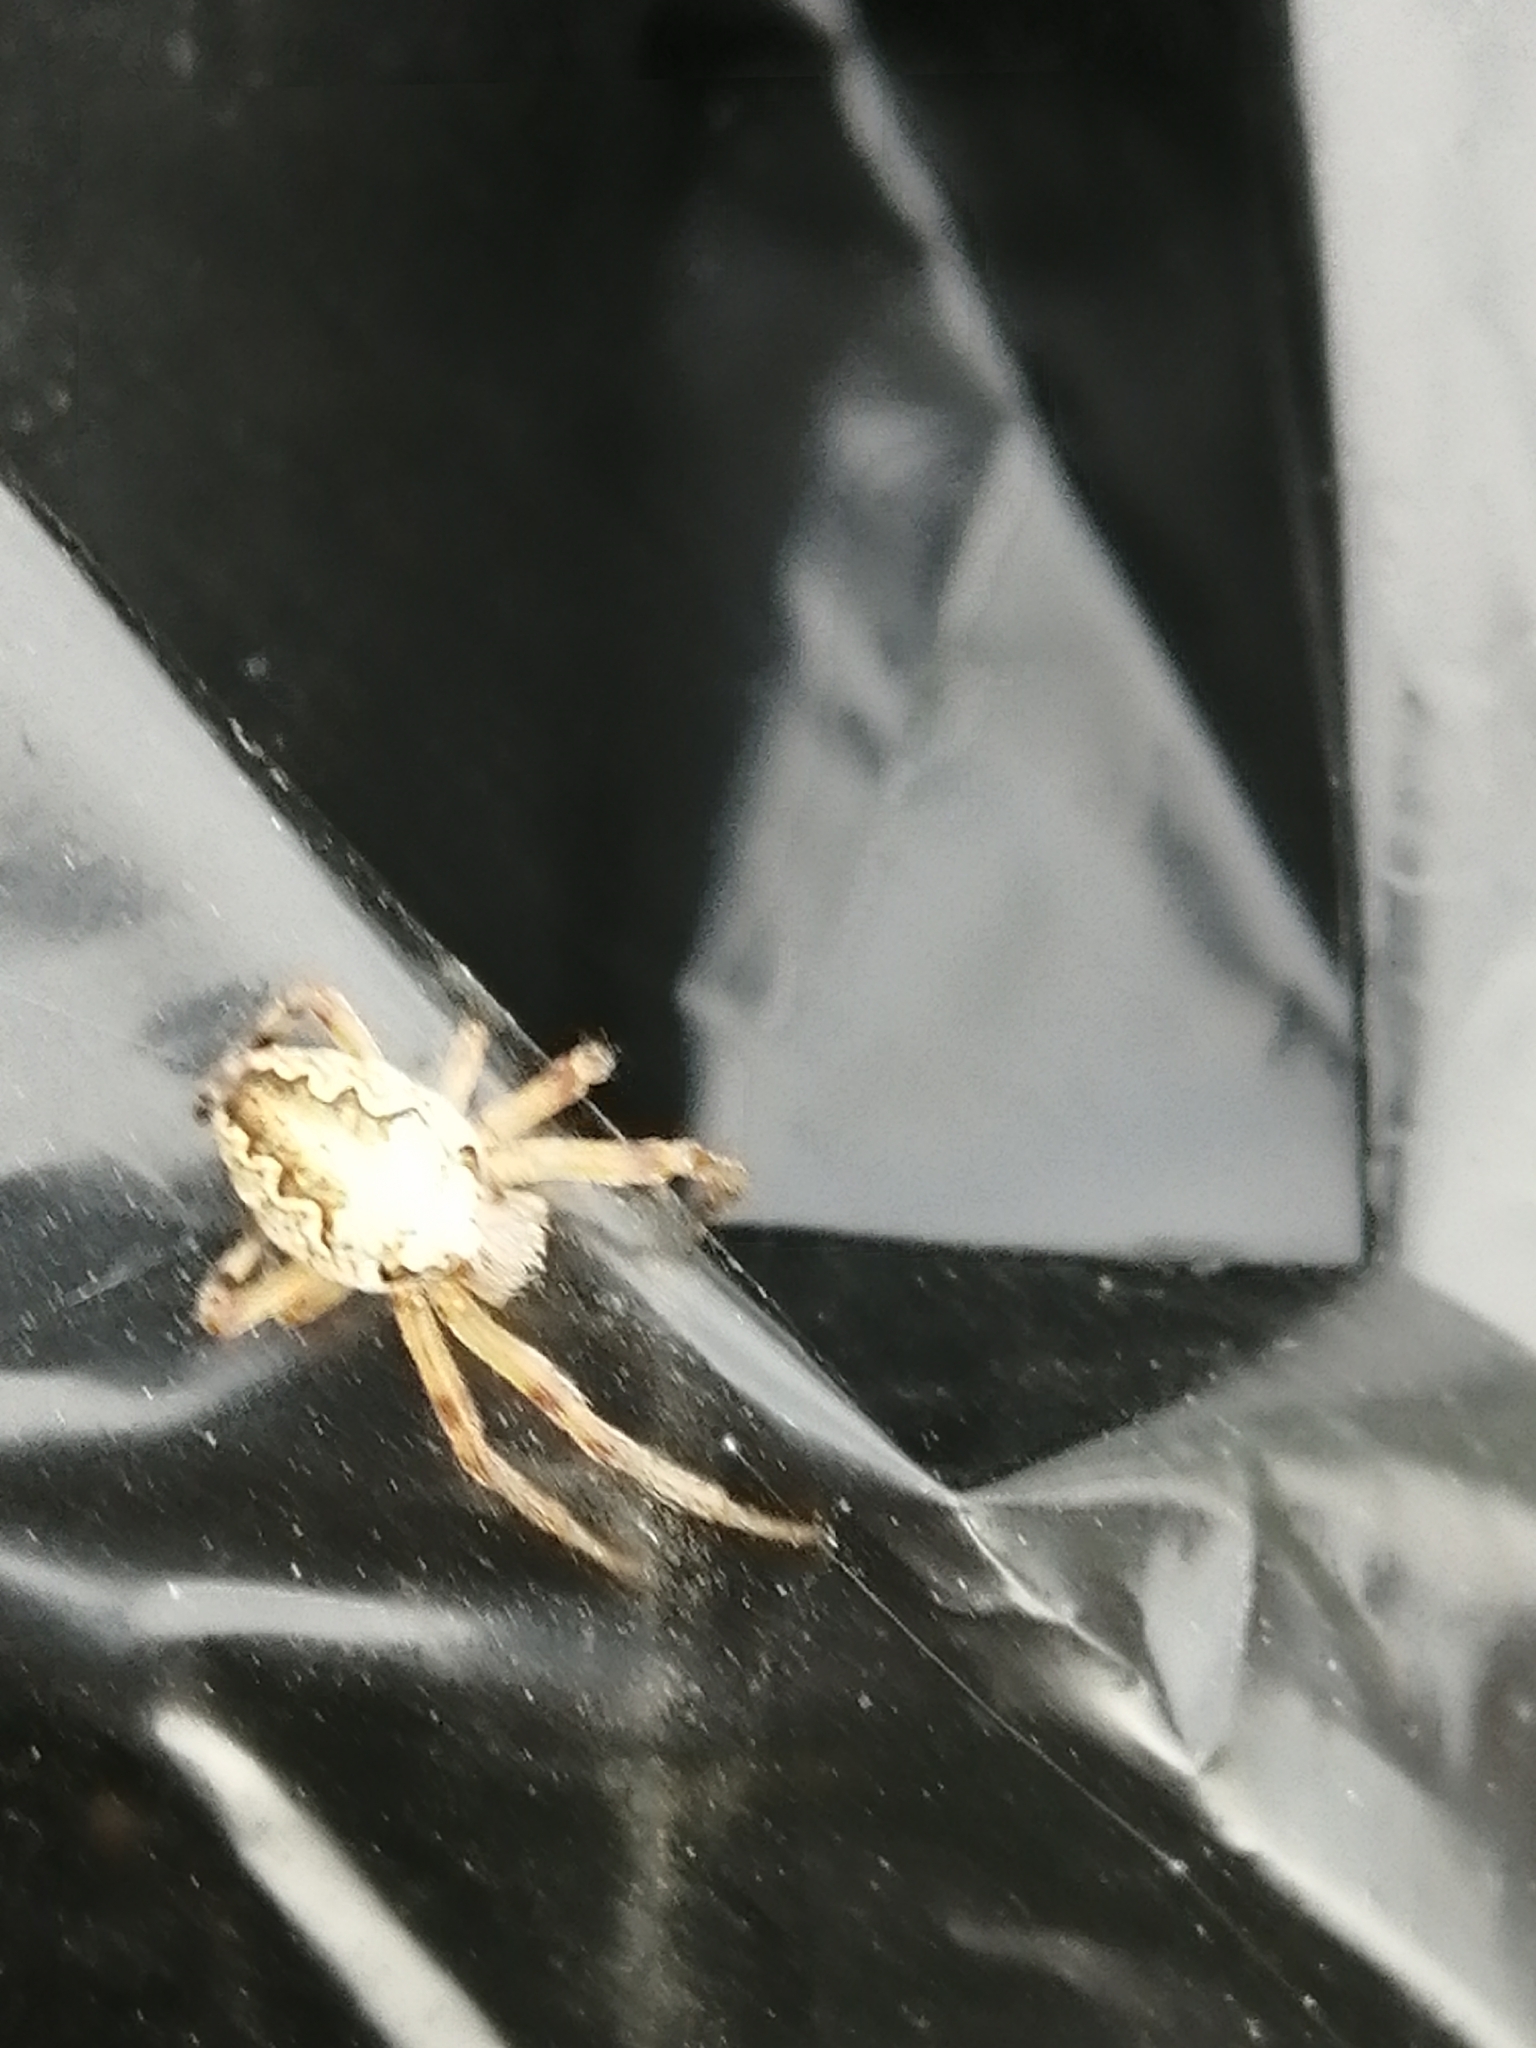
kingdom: Animalia
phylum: Arthropoda
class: Arachnida
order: Araneae
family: Araneidae
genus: Araneus
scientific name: Araneus diadematus
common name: Cross orbweaver
